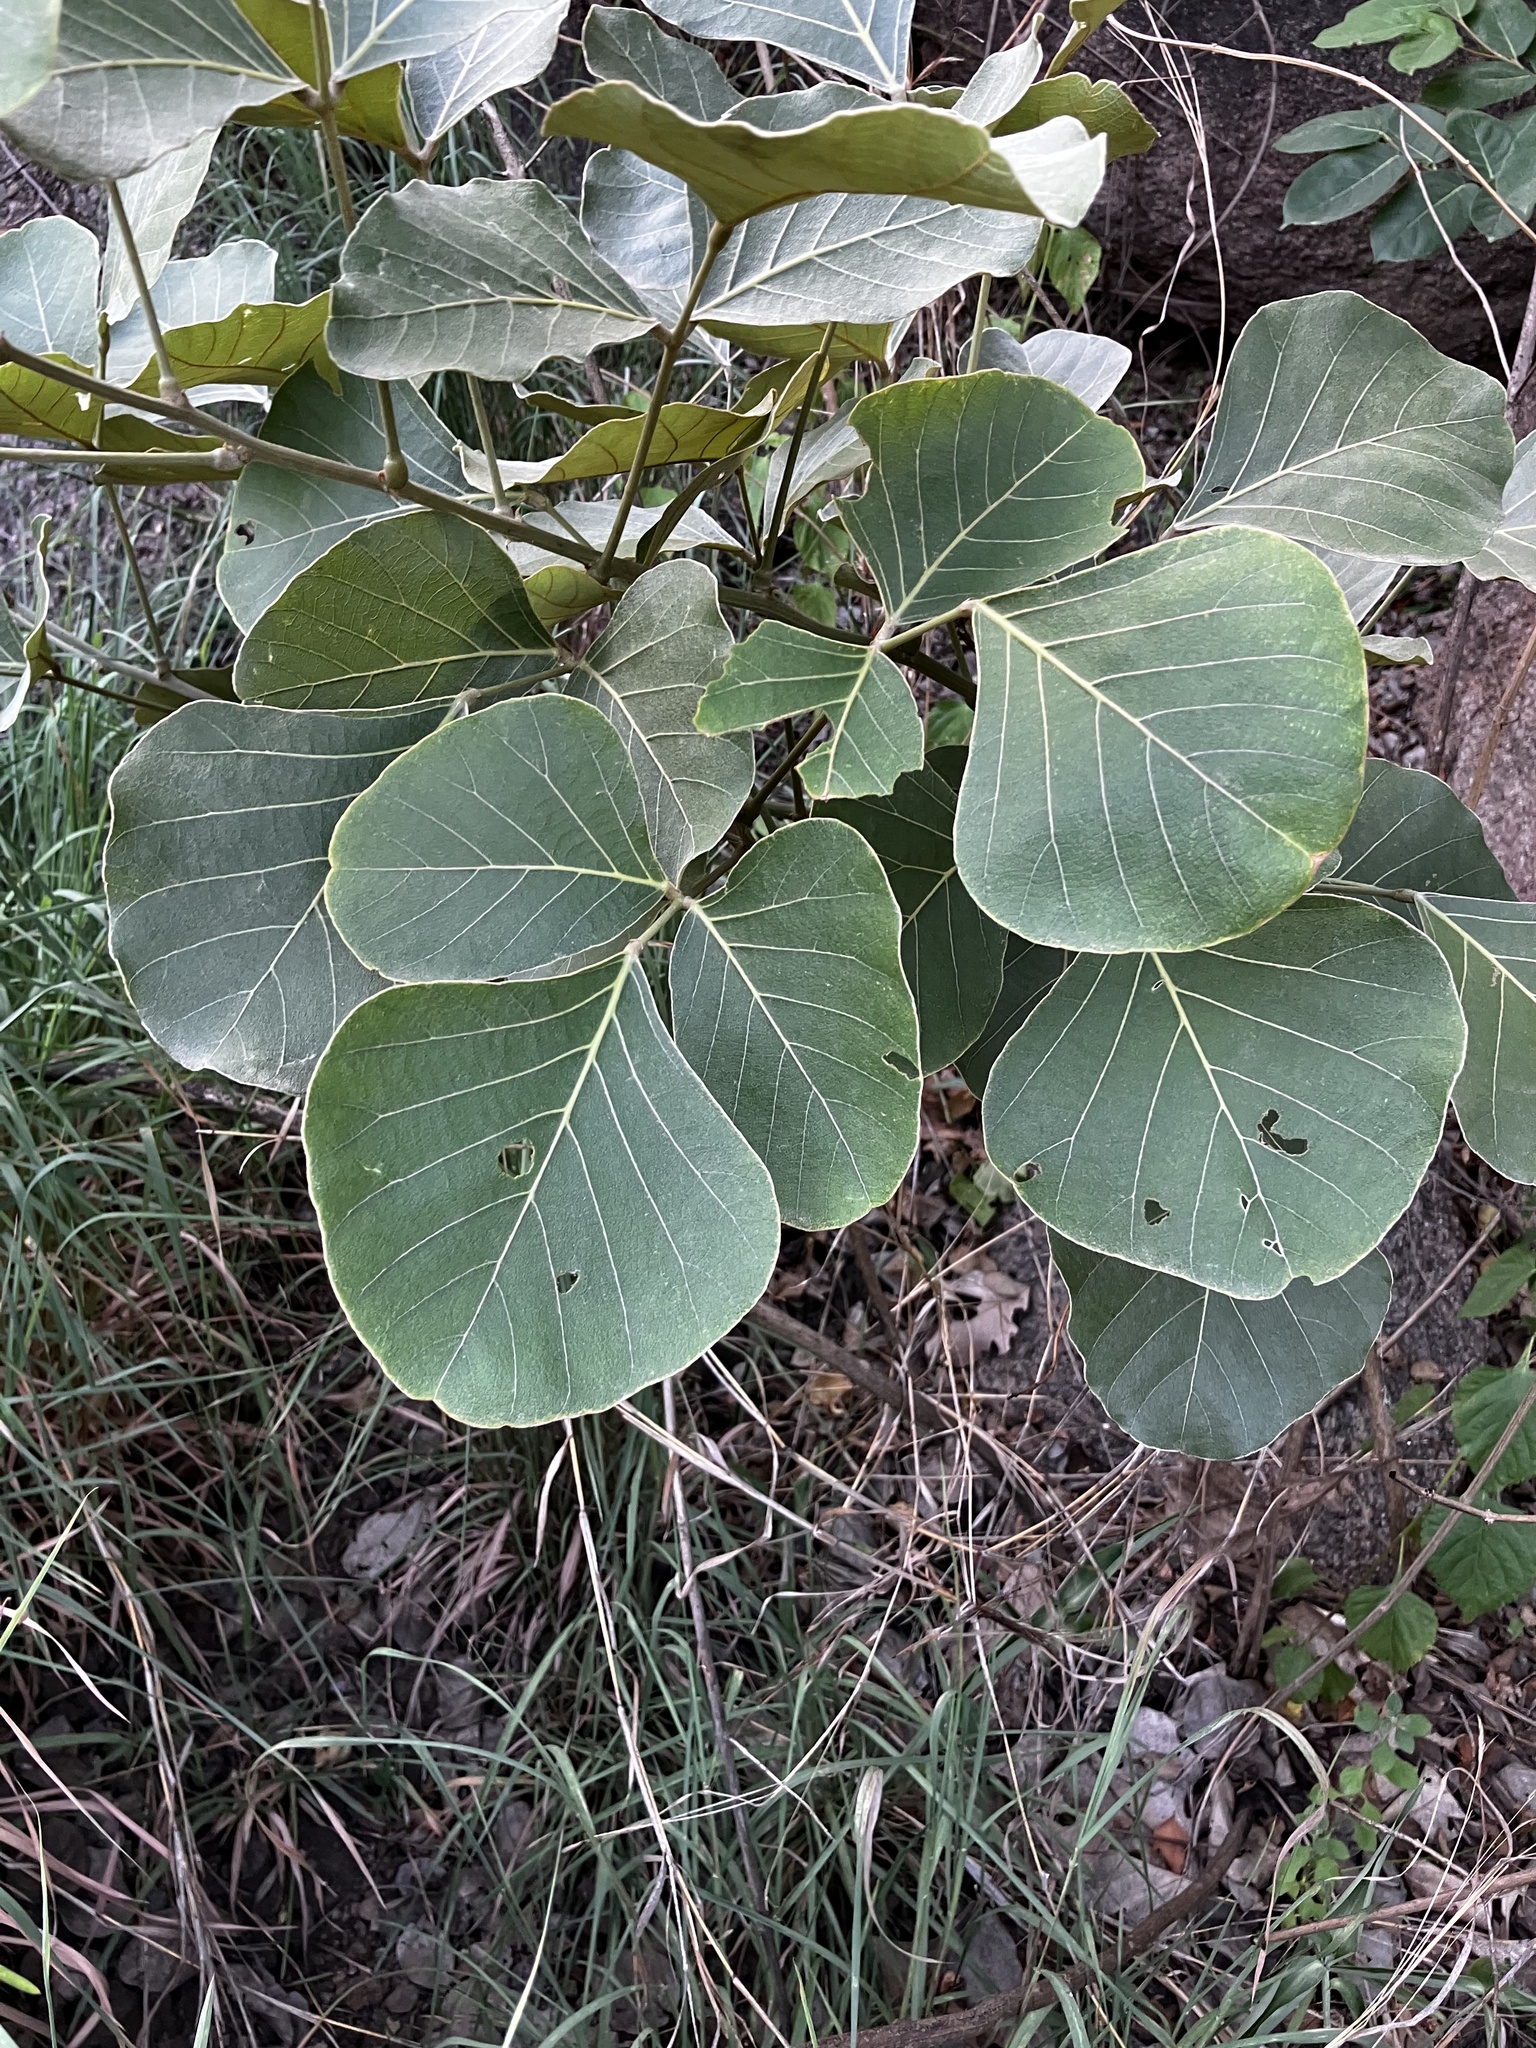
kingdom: Plantae
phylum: Tracheophyta
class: Magnoliopsida
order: Fabales
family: Fabaceae
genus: Butea
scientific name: Butea monosperma
